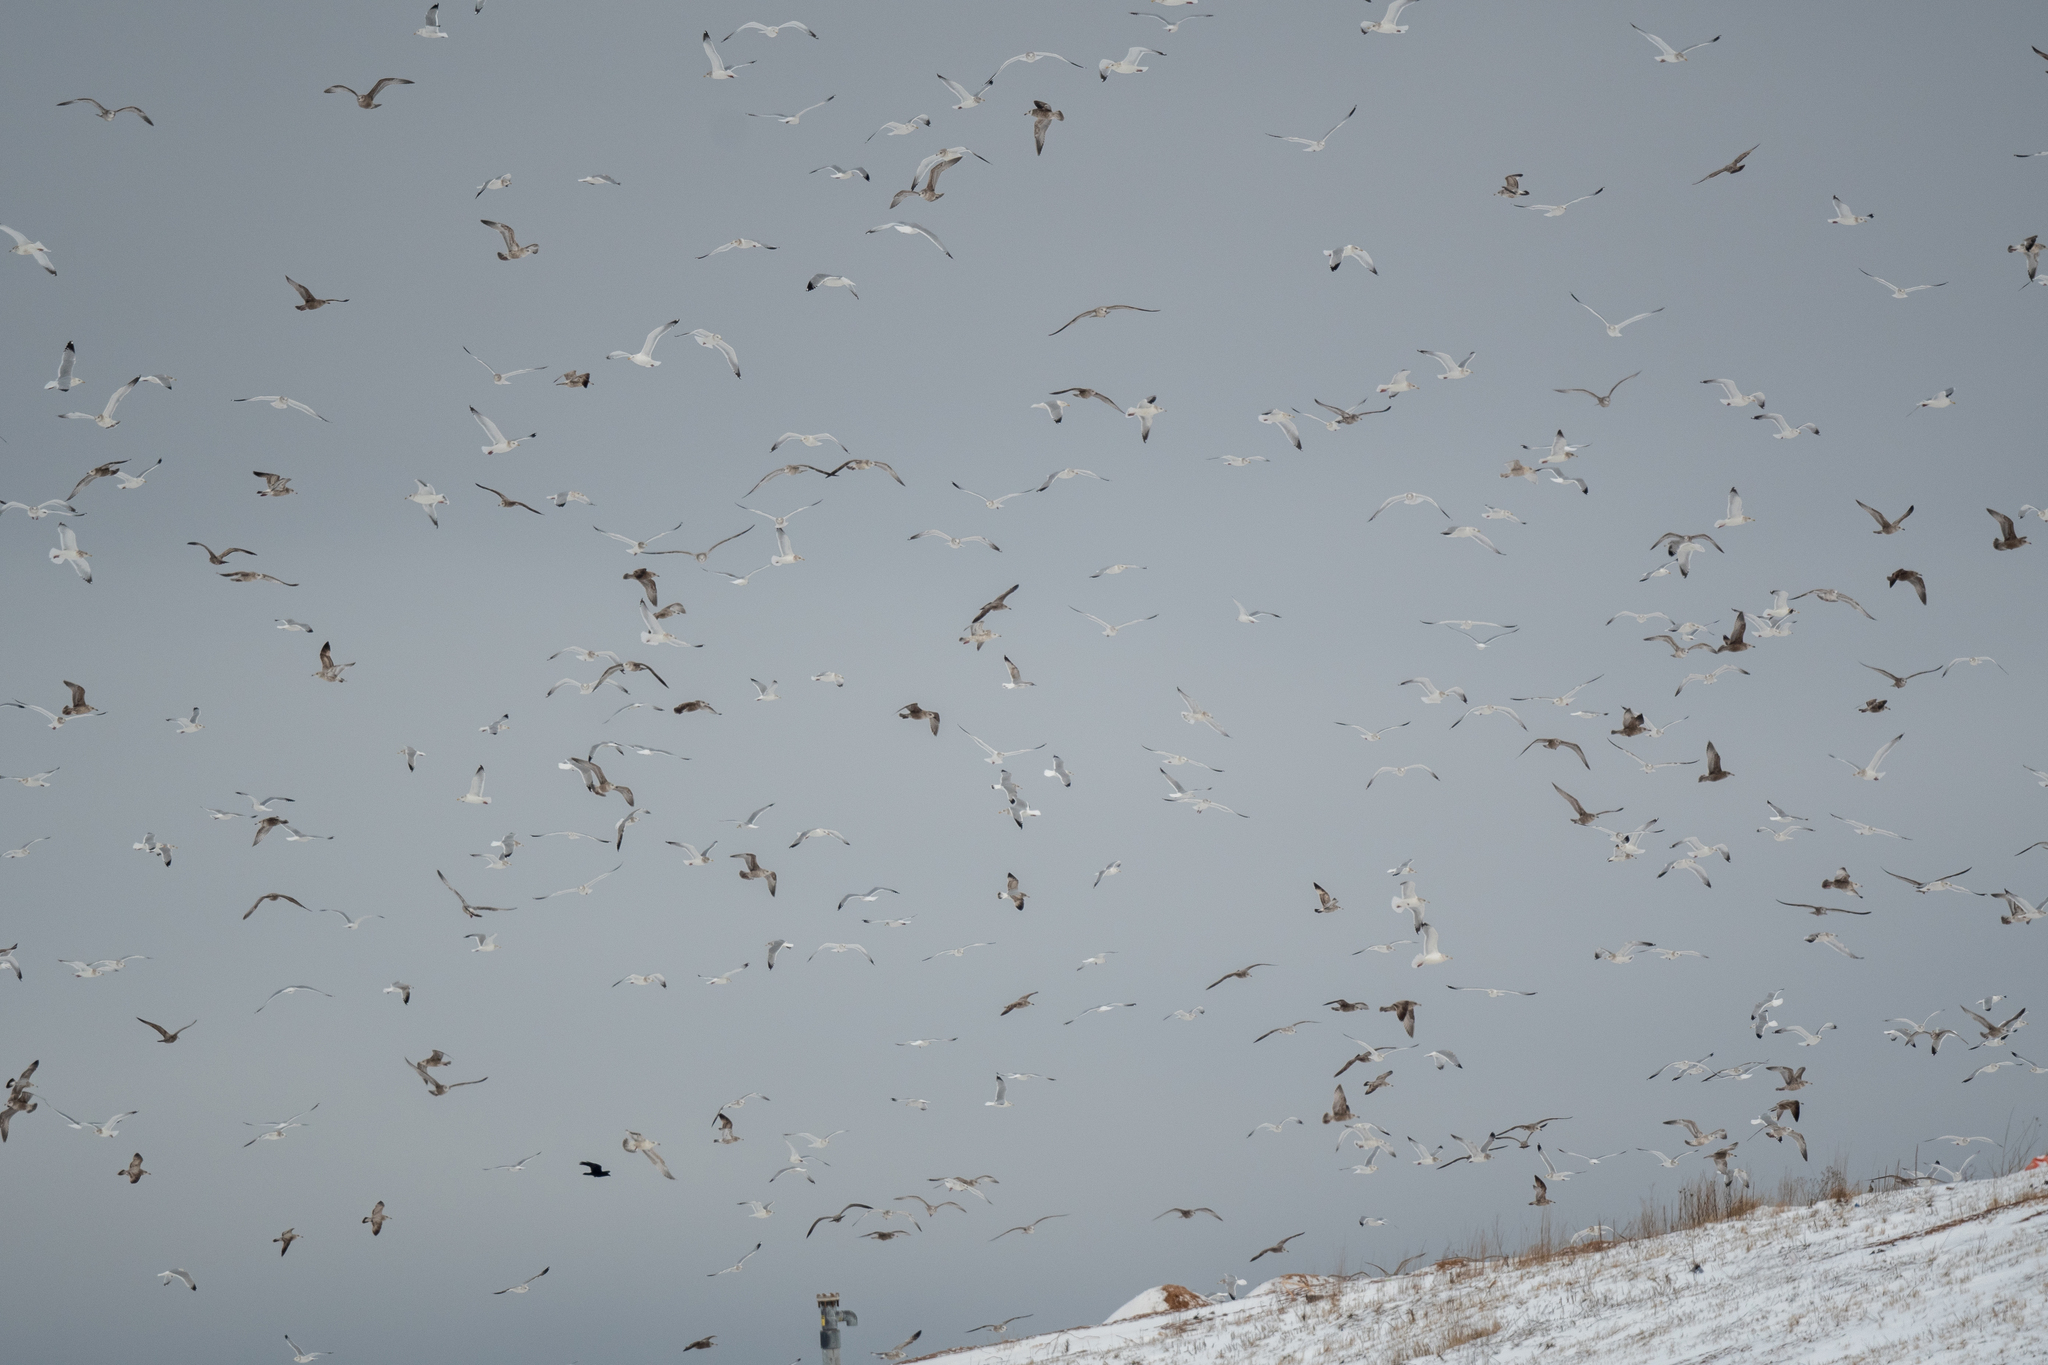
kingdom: Animalia
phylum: Chordata
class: Aves
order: Charadriiformes
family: Laridae
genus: Larus
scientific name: Larus argentatus
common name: Herring gull
